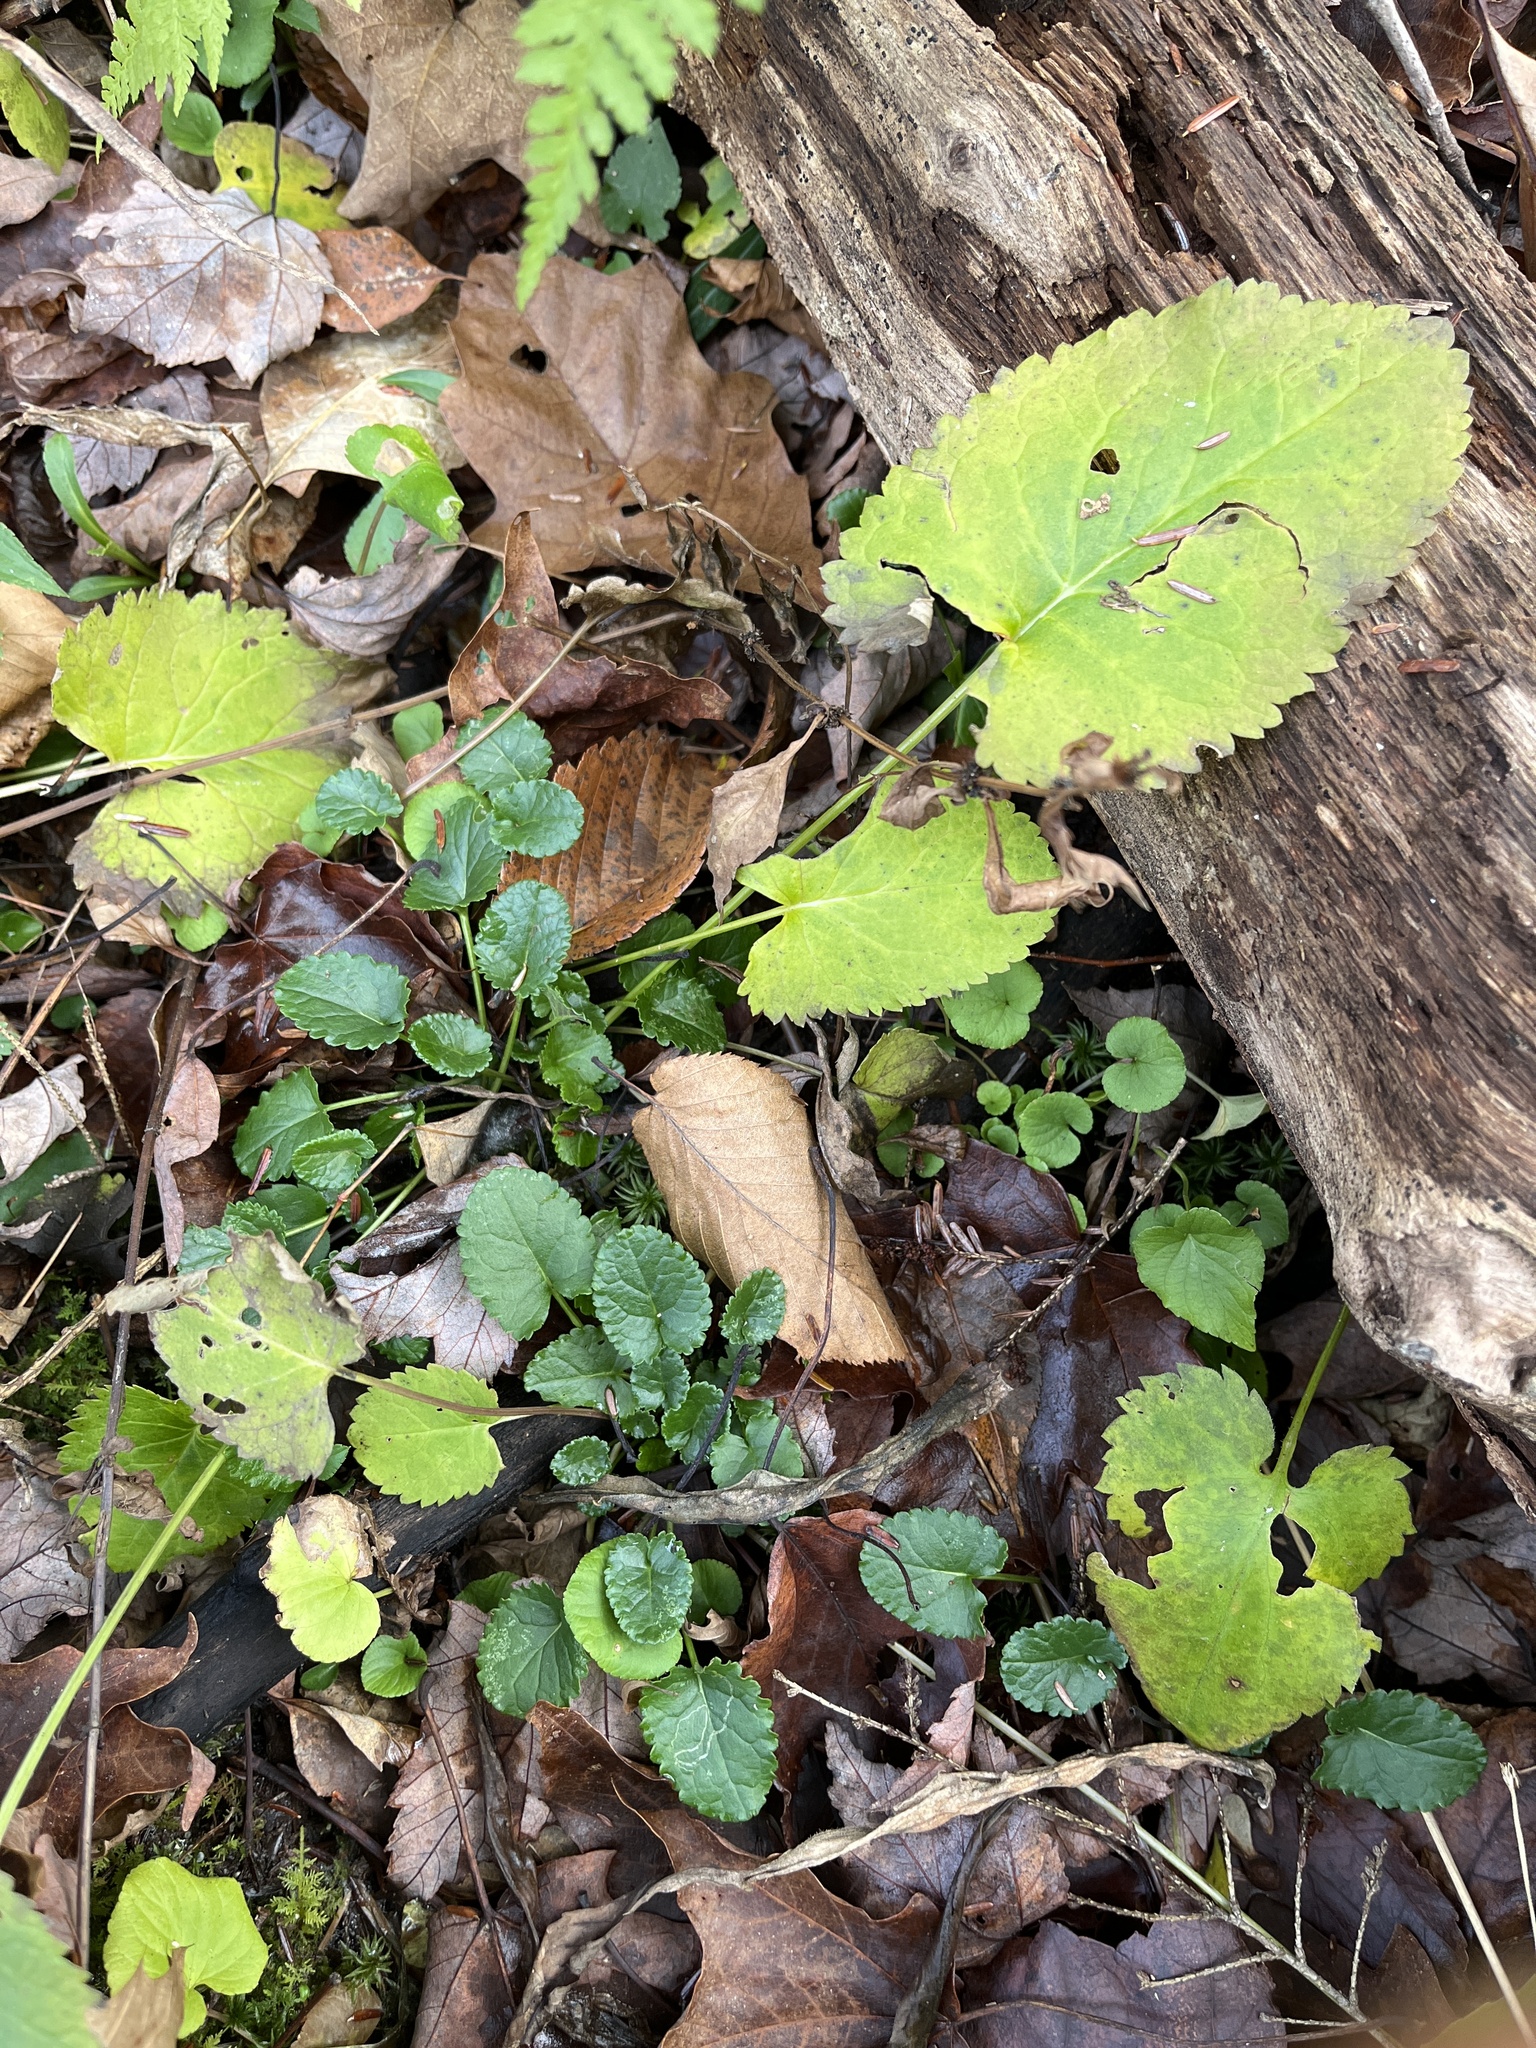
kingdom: Plantae
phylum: Tracheophyta
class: Magnoliopsida
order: Asterales
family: Asteraceae
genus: Packera
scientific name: Packera aurea
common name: Golden groundsel
